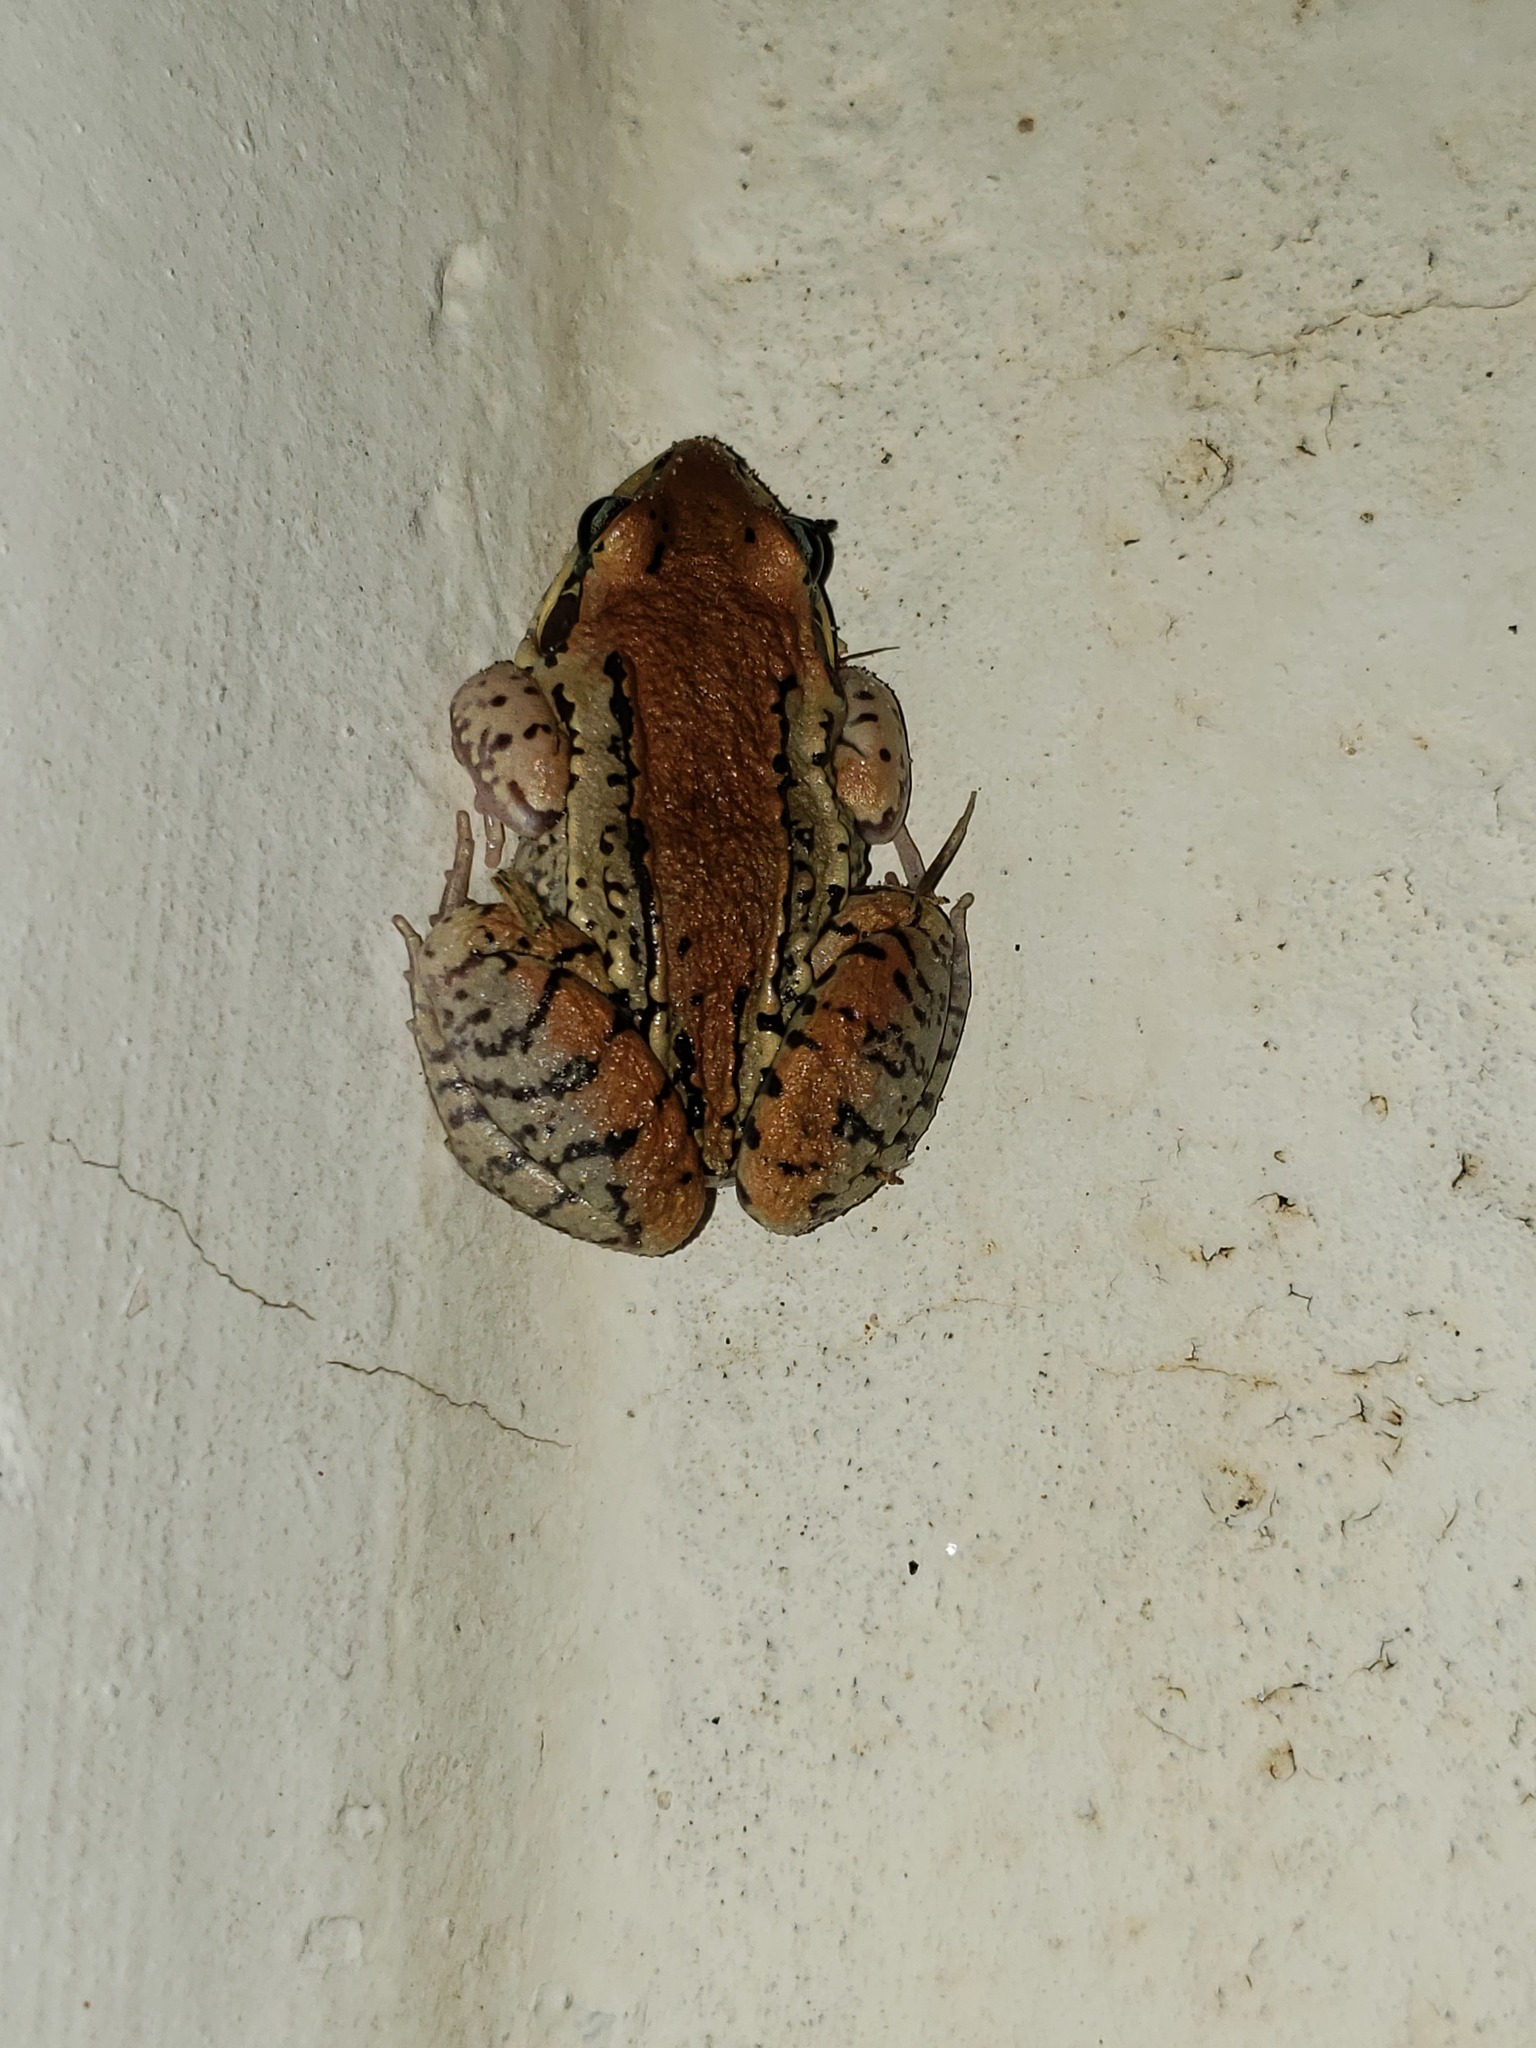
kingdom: Animalia
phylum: Chordata
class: Amphibia
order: Anura
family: Leptodactylidae
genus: Leptodactylus
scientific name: Leptodactylus mystacinus
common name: Moustached frog
